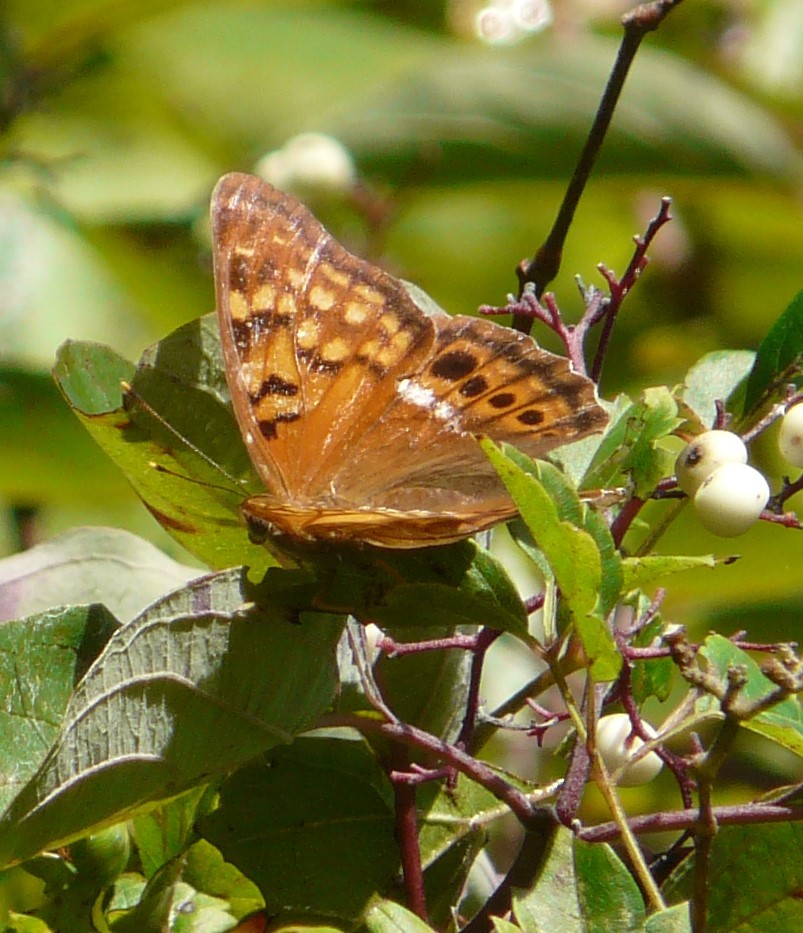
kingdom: Animalia
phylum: Arthropoda
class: Insecta
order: Lepidoptera
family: Nymphalidae
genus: Asterocampa
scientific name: Asterocampa clyton
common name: Tawny emperor
